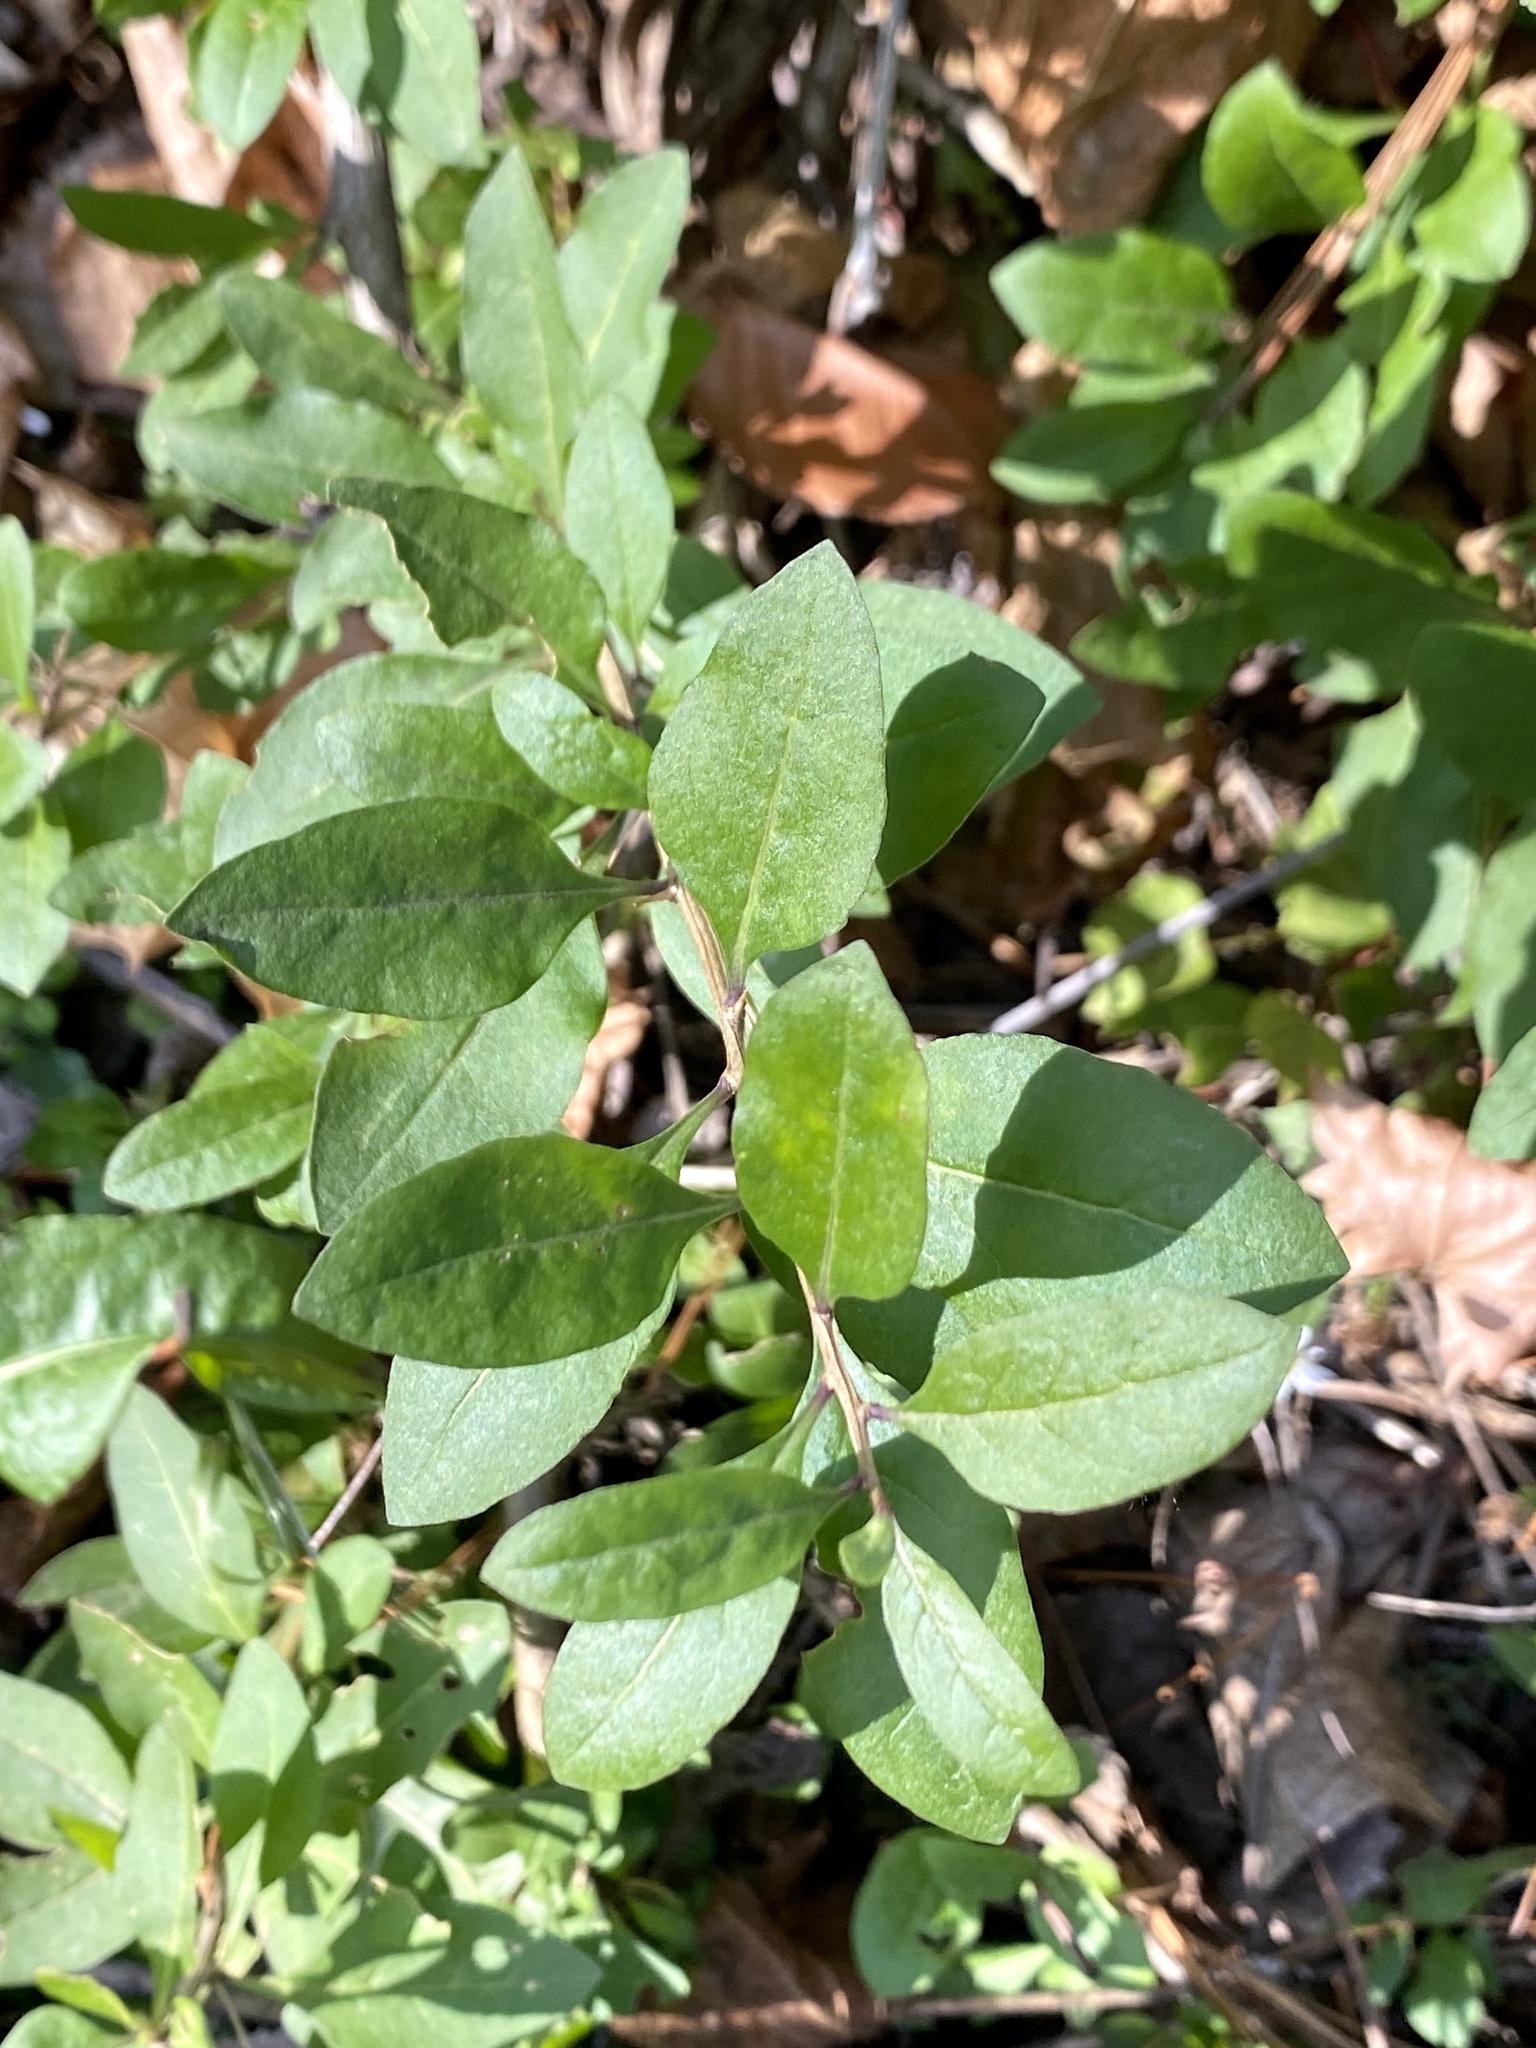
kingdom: Plantae
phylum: Tracheophyta
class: Magnoliopsida
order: Solanales
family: Solanaceae
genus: Lycium
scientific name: Lycium barbarum
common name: Duke of argyll's teaplant
